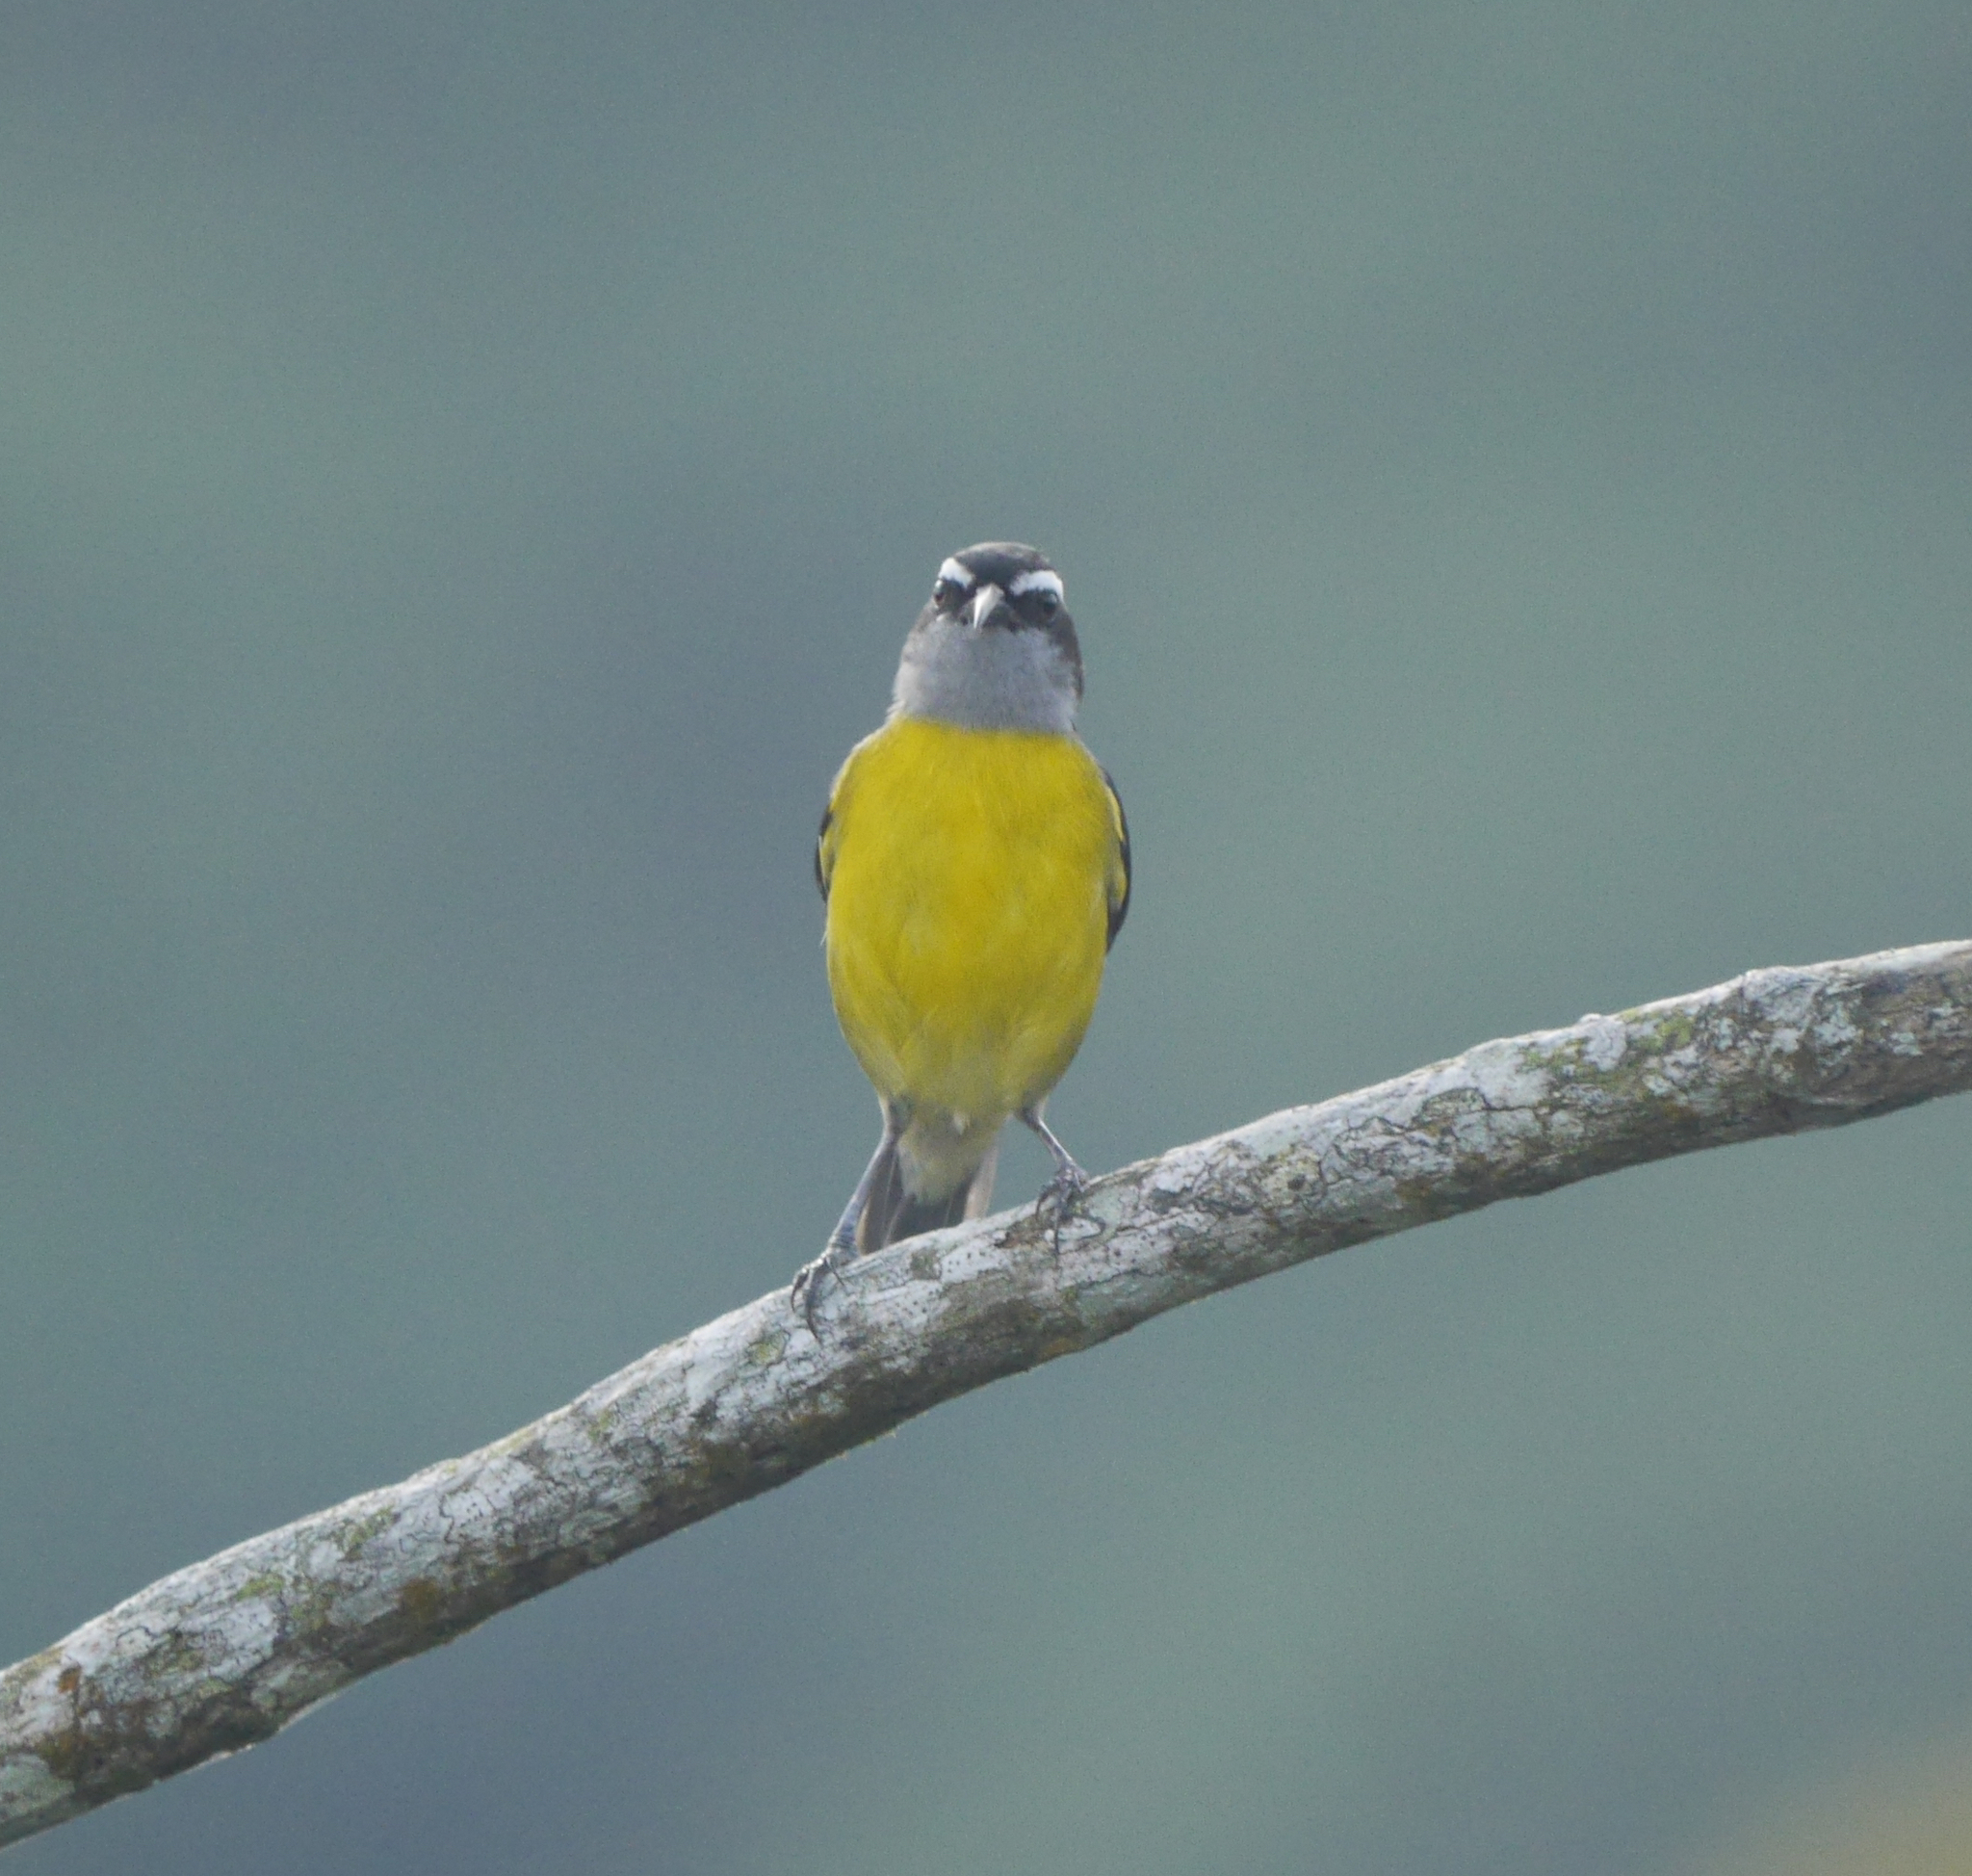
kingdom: Animalia
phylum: Chordata
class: Aves
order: Passeriformes
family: Thraupidae
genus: Coereba
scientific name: Coereba flaveola
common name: Bananaquit
